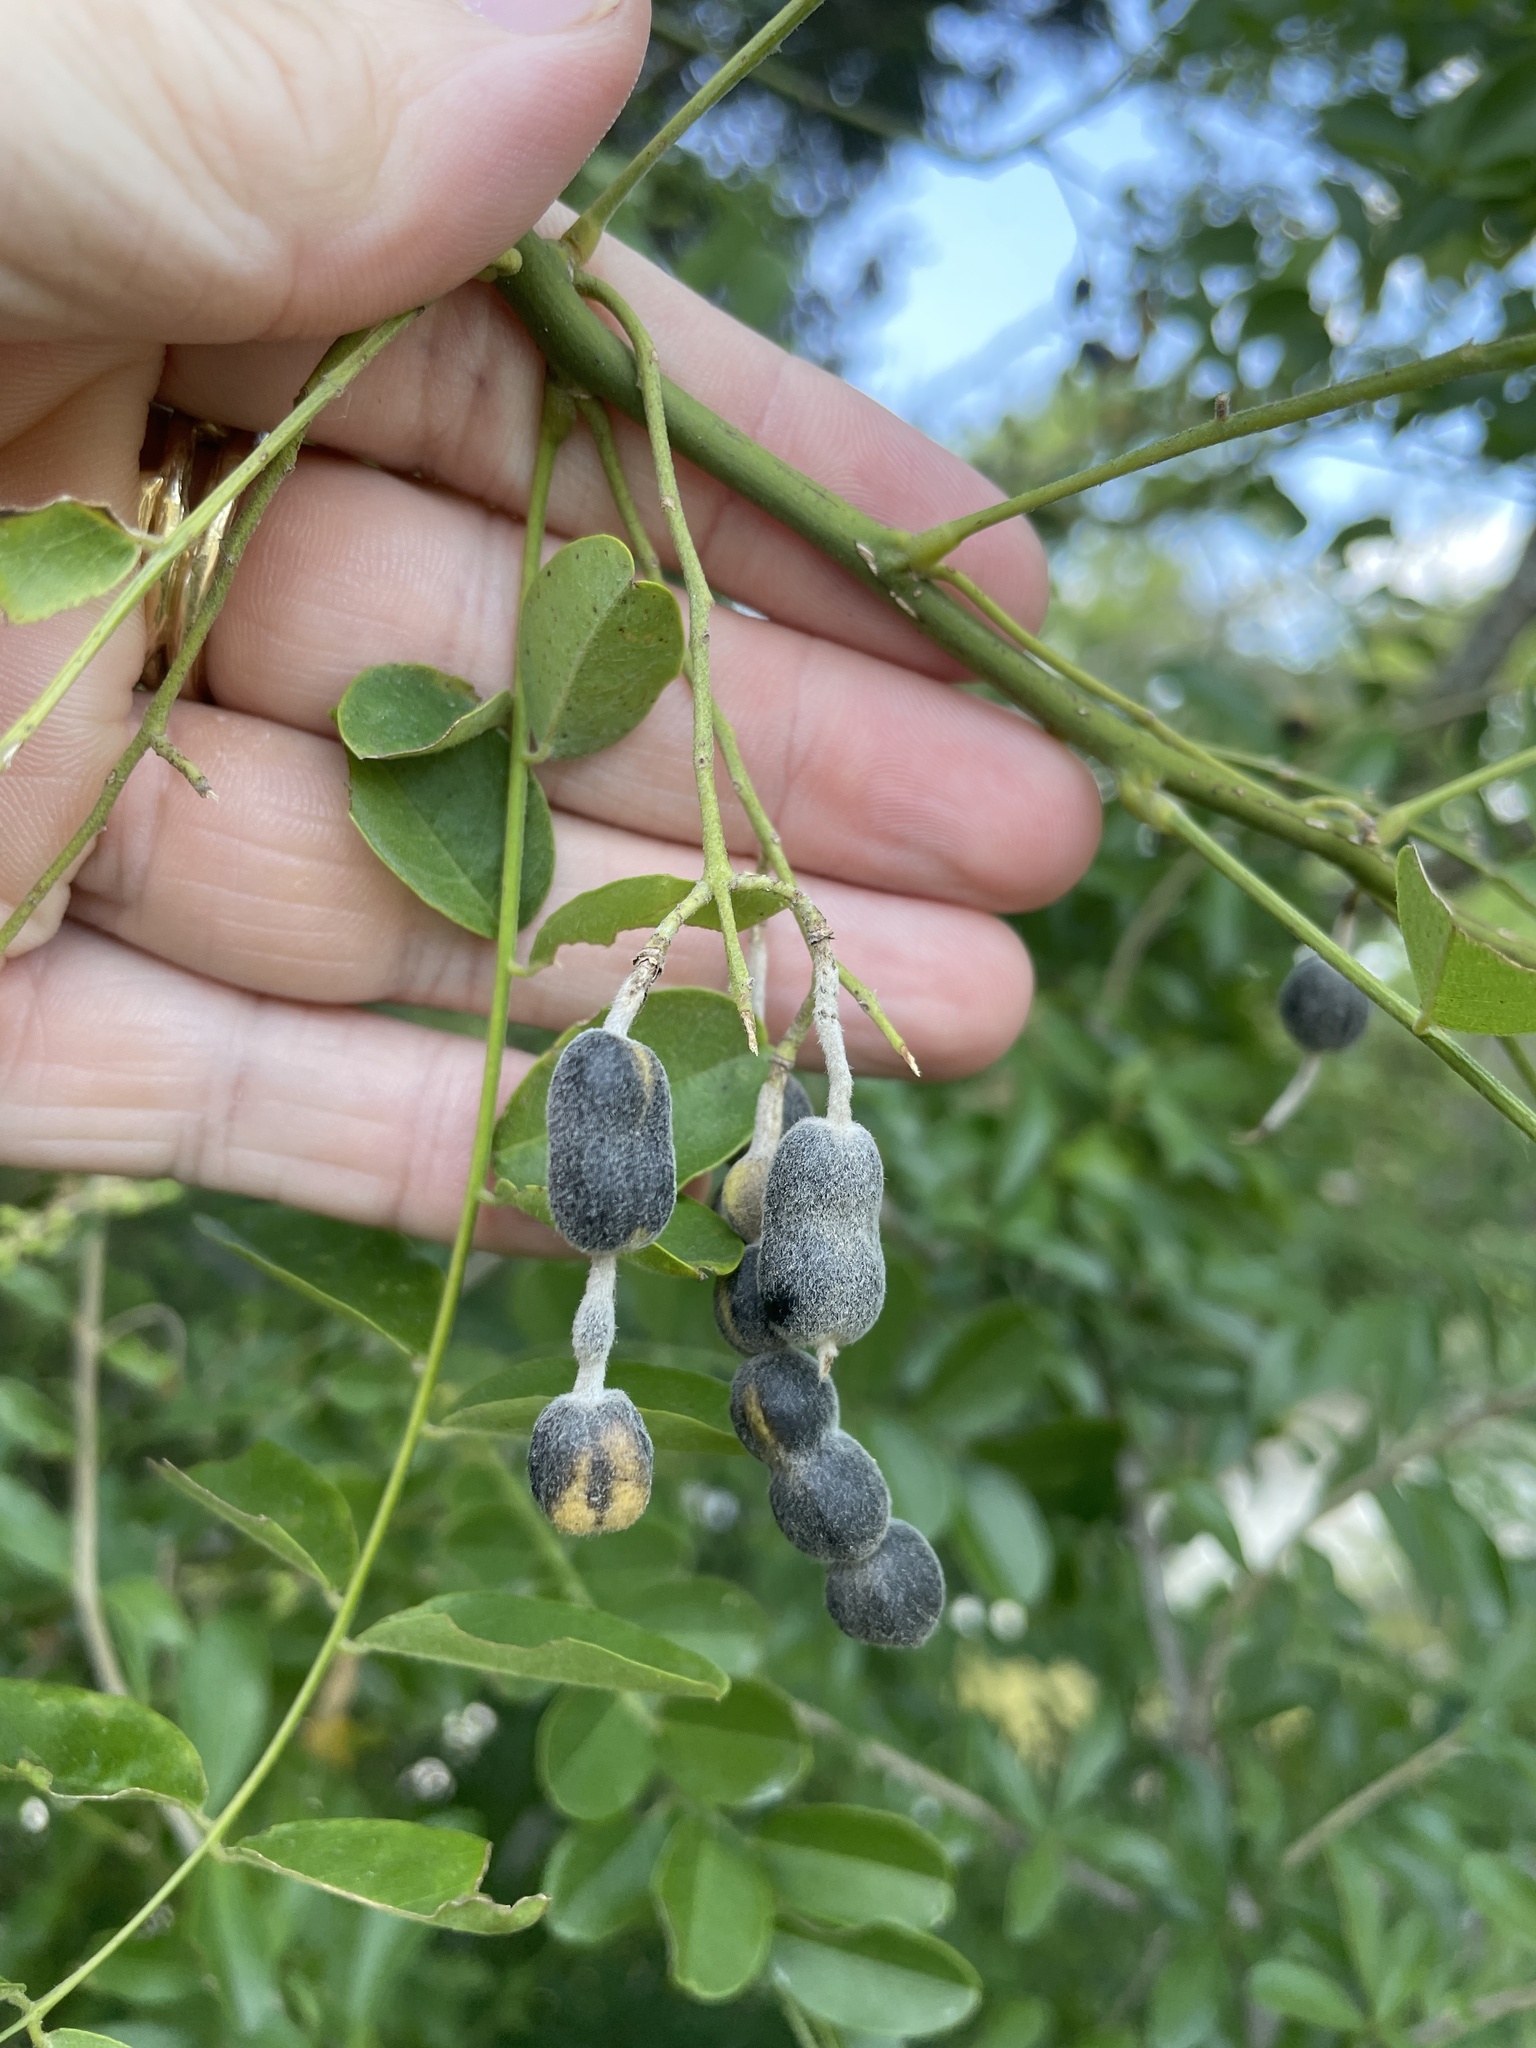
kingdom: Plantae
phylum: Tracheophyta
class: Magnoliopsida
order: Fabales
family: Fabaceae
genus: Styphnolobium
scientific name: Styphnolobium affine
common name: Texas sophora
